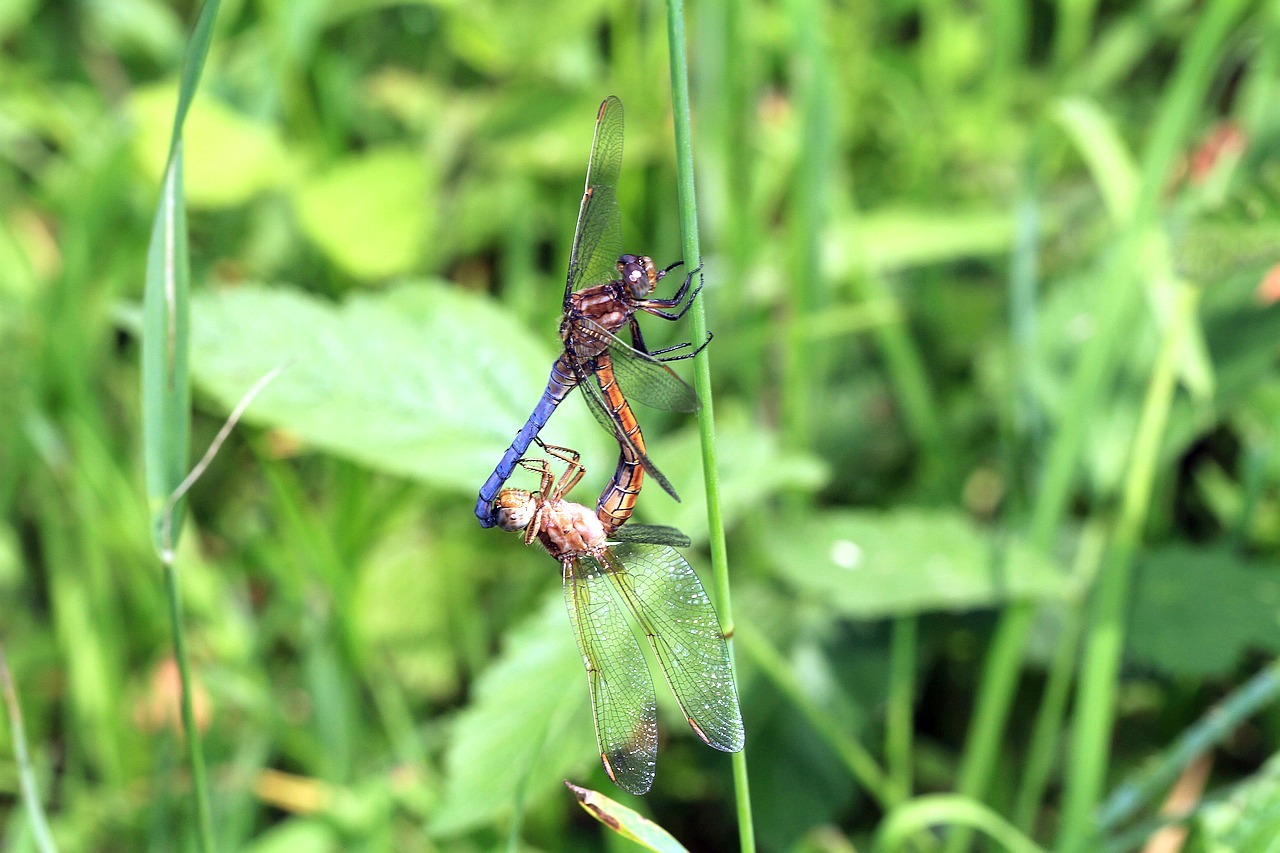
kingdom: Animalia
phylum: Arthropoda
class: Insecta
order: Odonata
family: Libellulidae
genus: Orthetrum
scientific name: Orthetrum coerulescens
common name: Keeled skimmer
